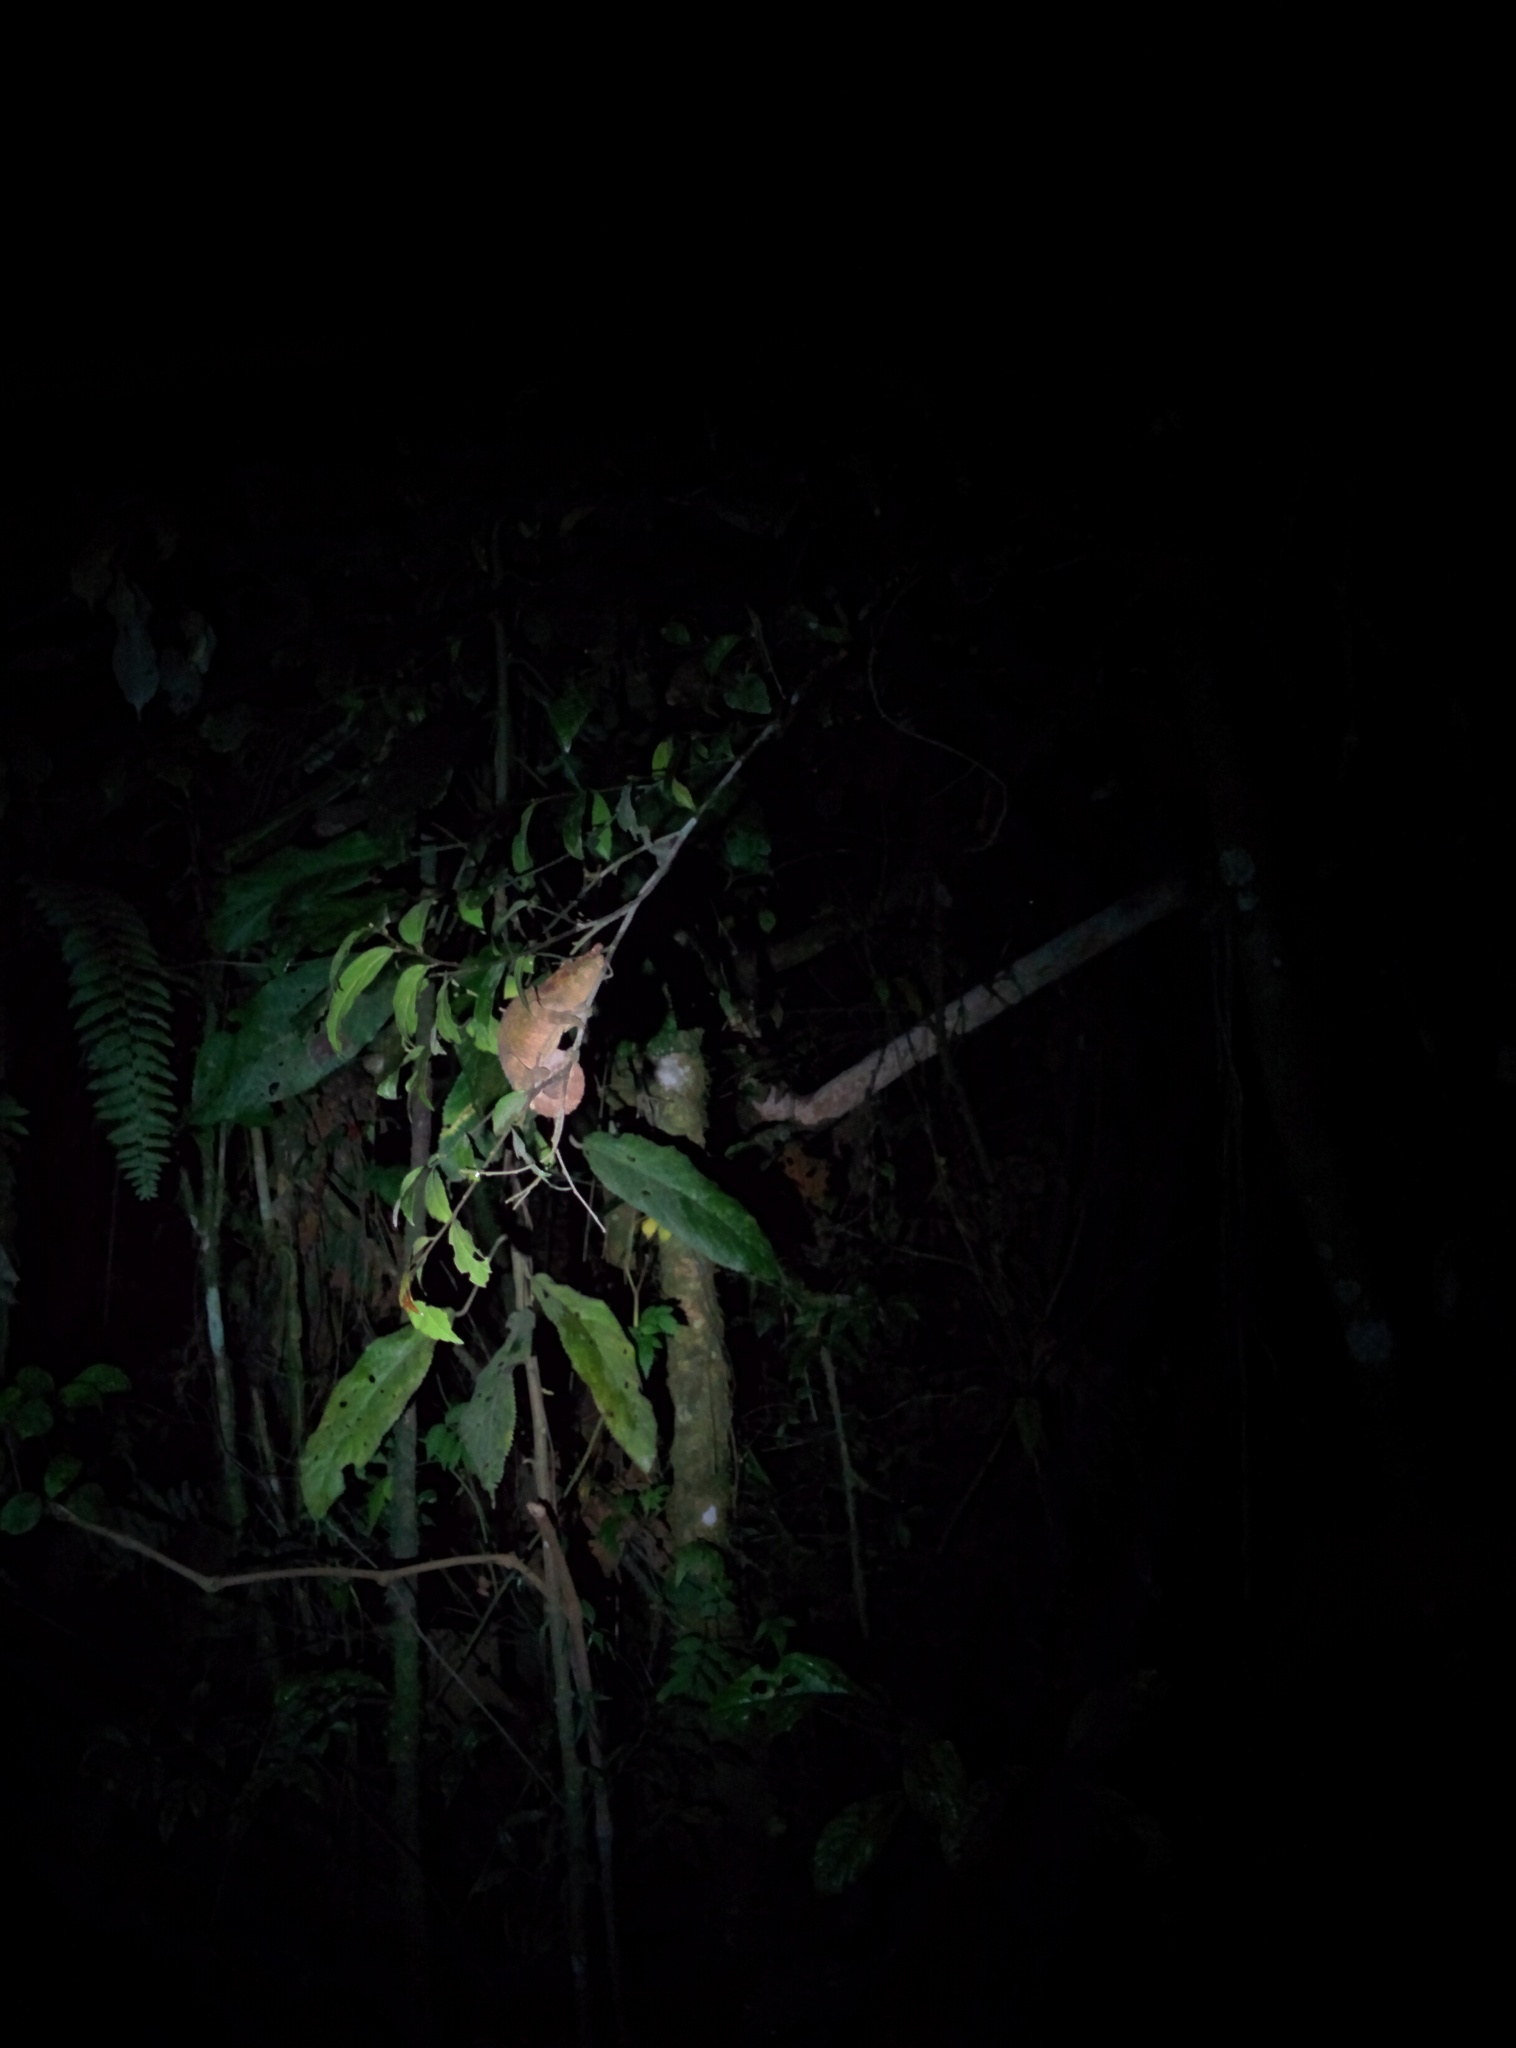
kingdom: Animalia
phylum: Chordata
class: Squamata
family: Chamaeleonidae
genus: Calumma
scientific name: Calumma crypticum
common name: Cryptic chameleon
